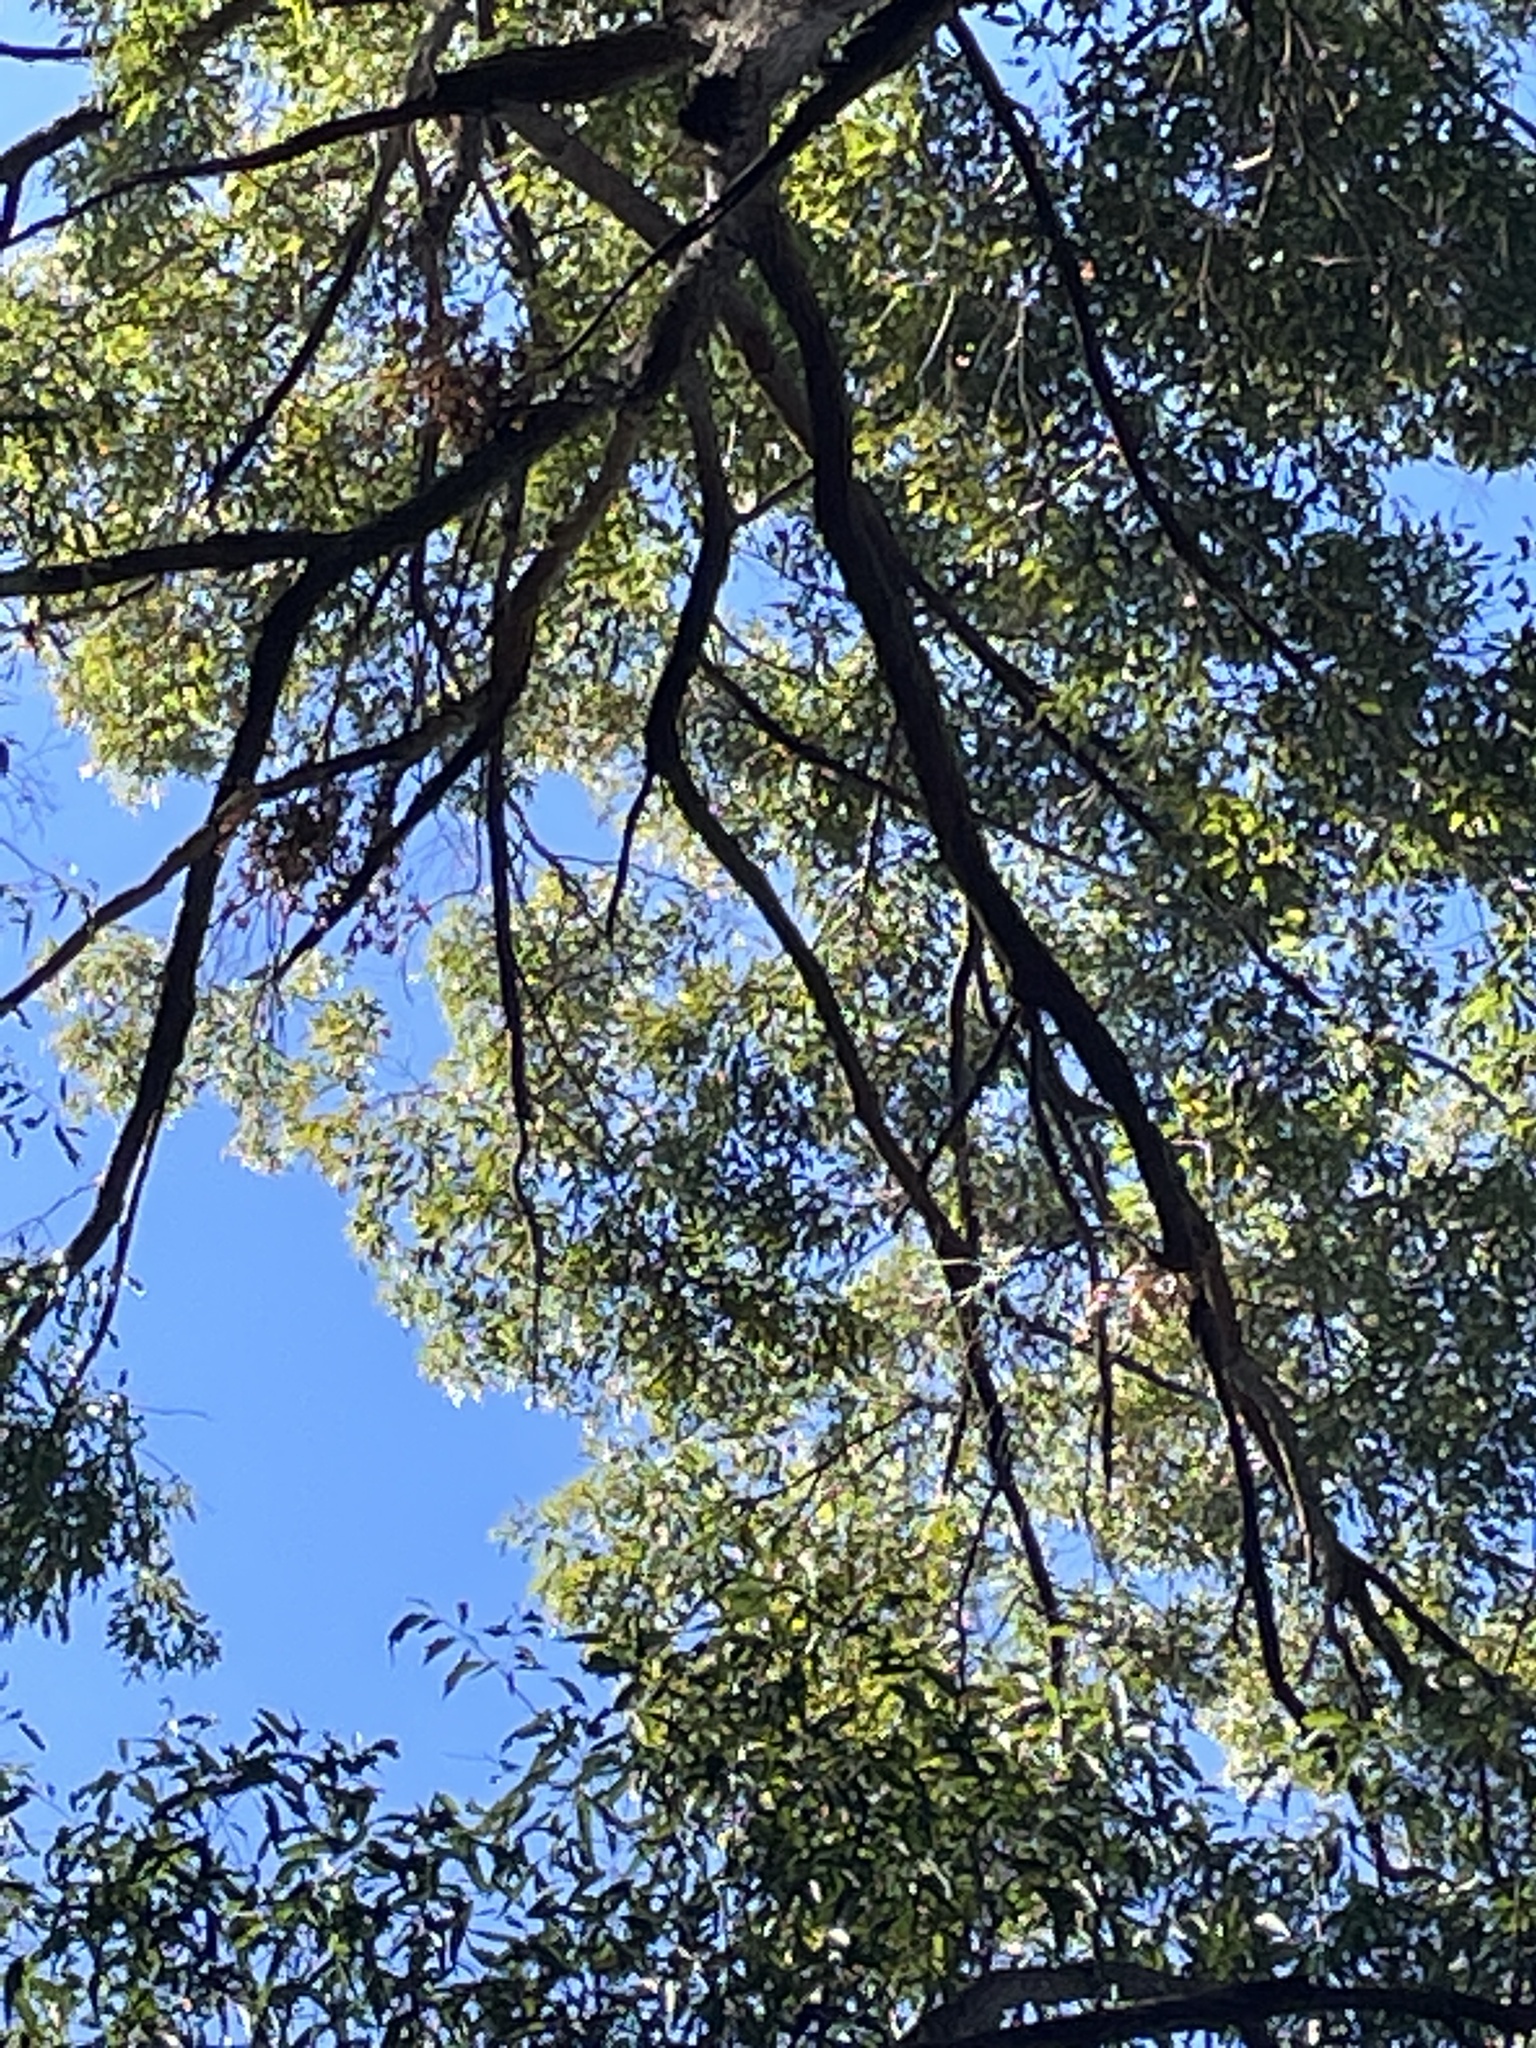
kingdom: Plantae
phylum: Tracheophyta
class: Magnoliopsida
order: Myrtales
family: Myrtaceae
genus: Eucalyptus
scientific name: Eucalyptus microcorys
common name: Tallowwood
